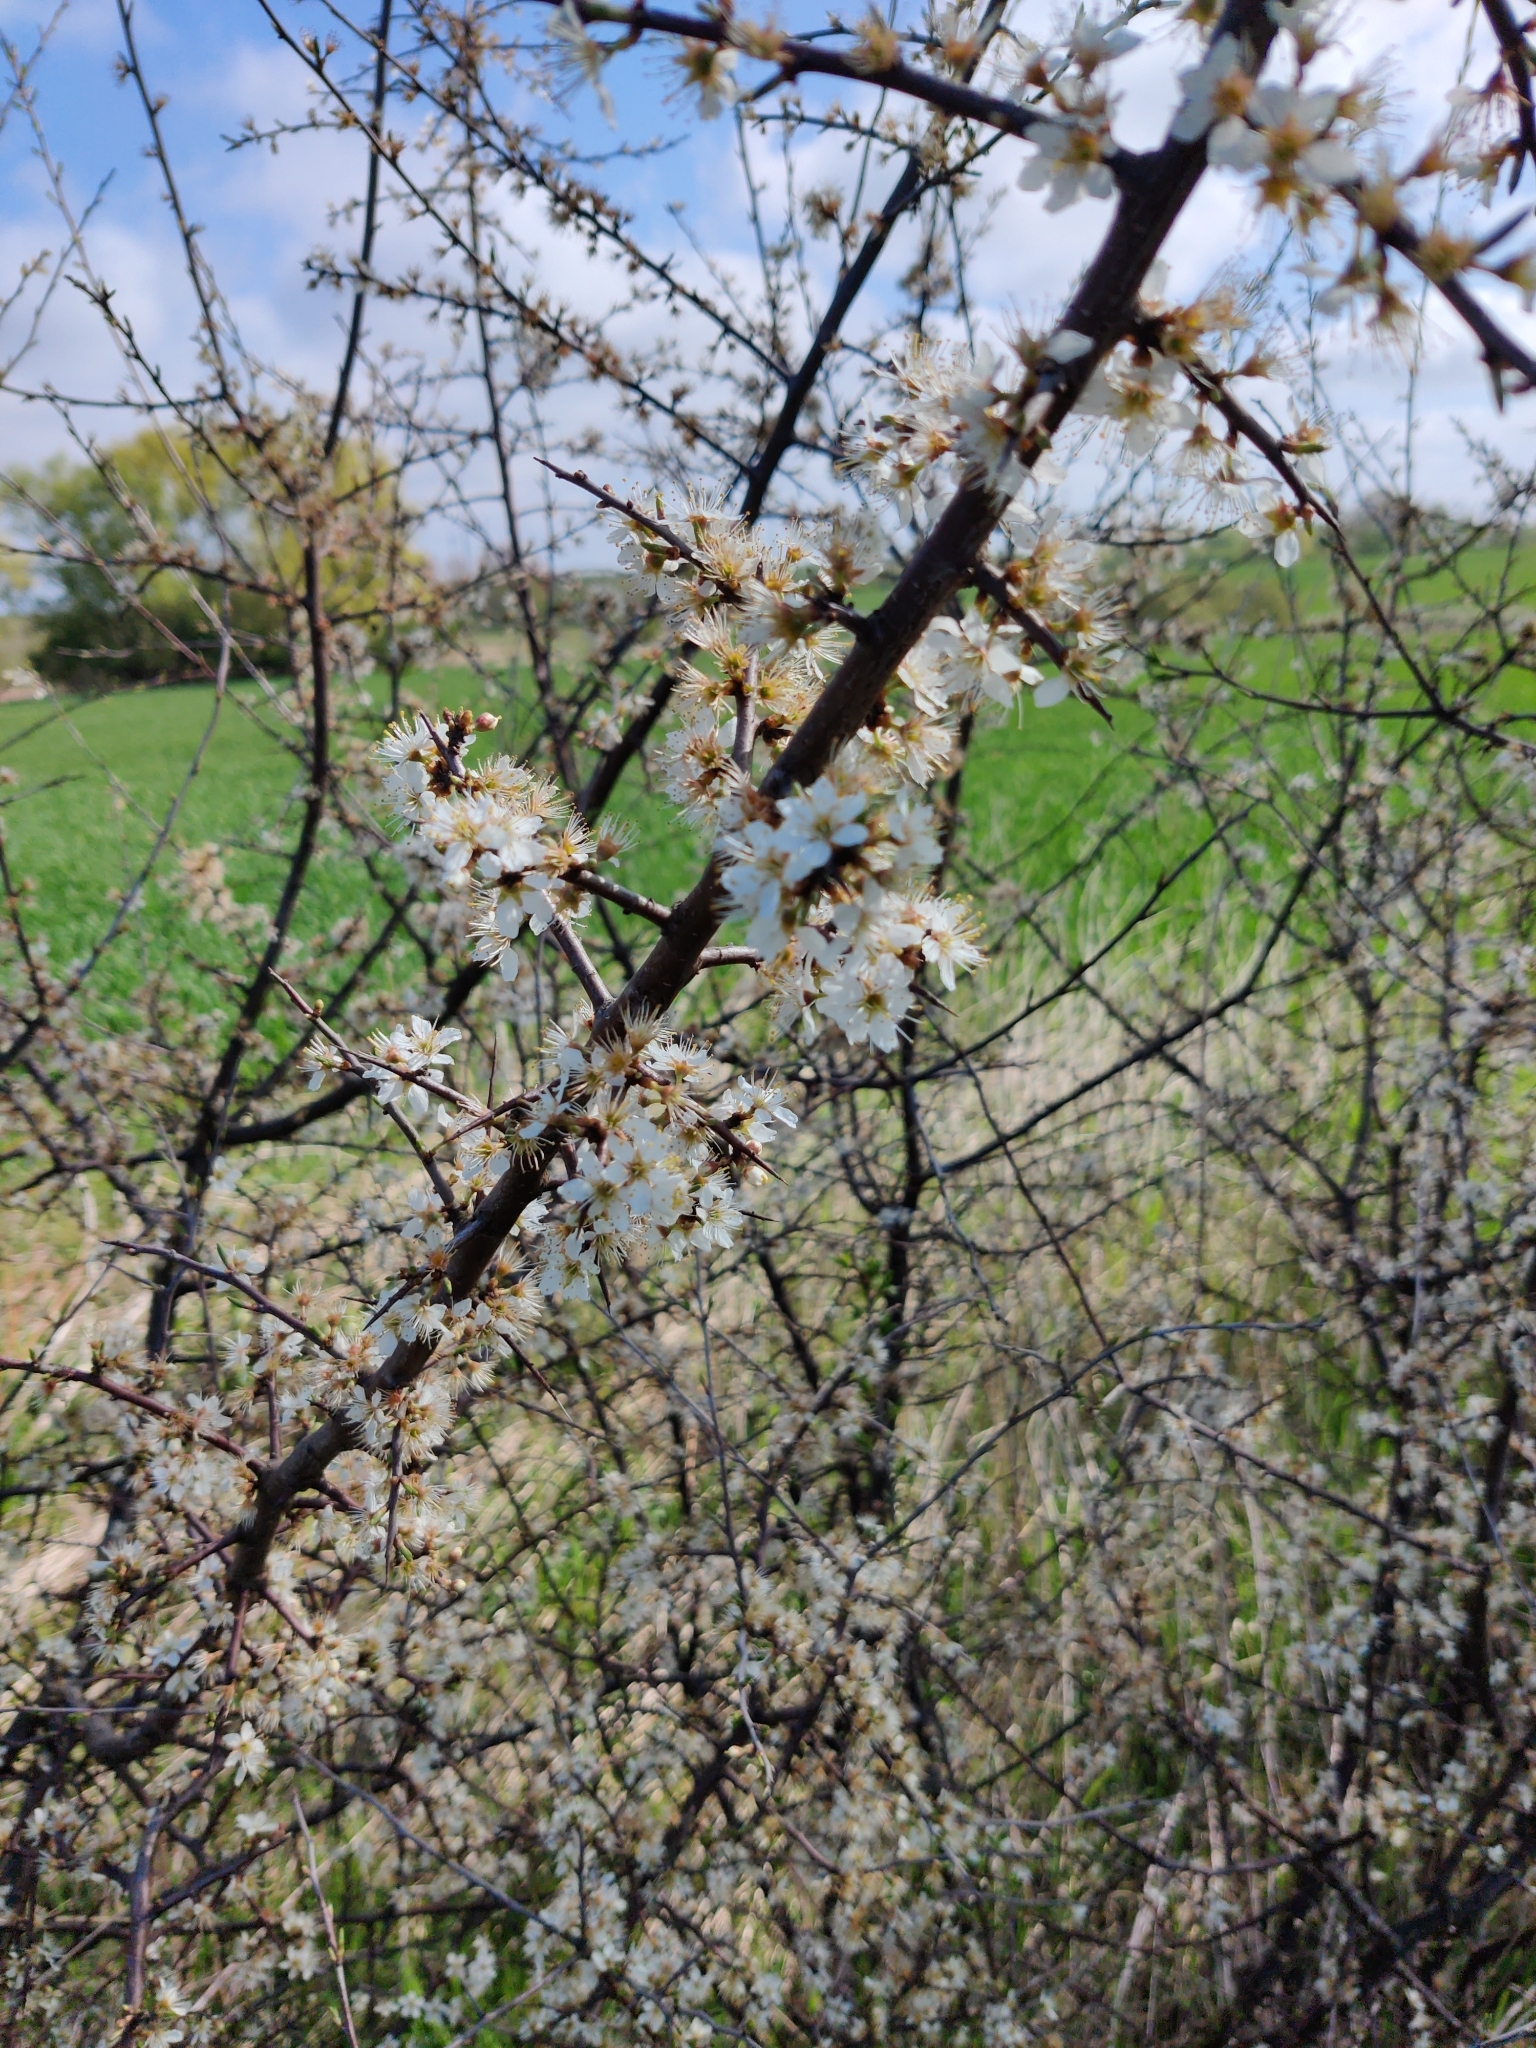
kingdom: Plantae
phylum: Tracheophyta
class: Magnoliopsida
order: Rosales
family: Rosaceae
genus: Prunus
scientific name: Prunus spinosa
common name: Blackthorn
